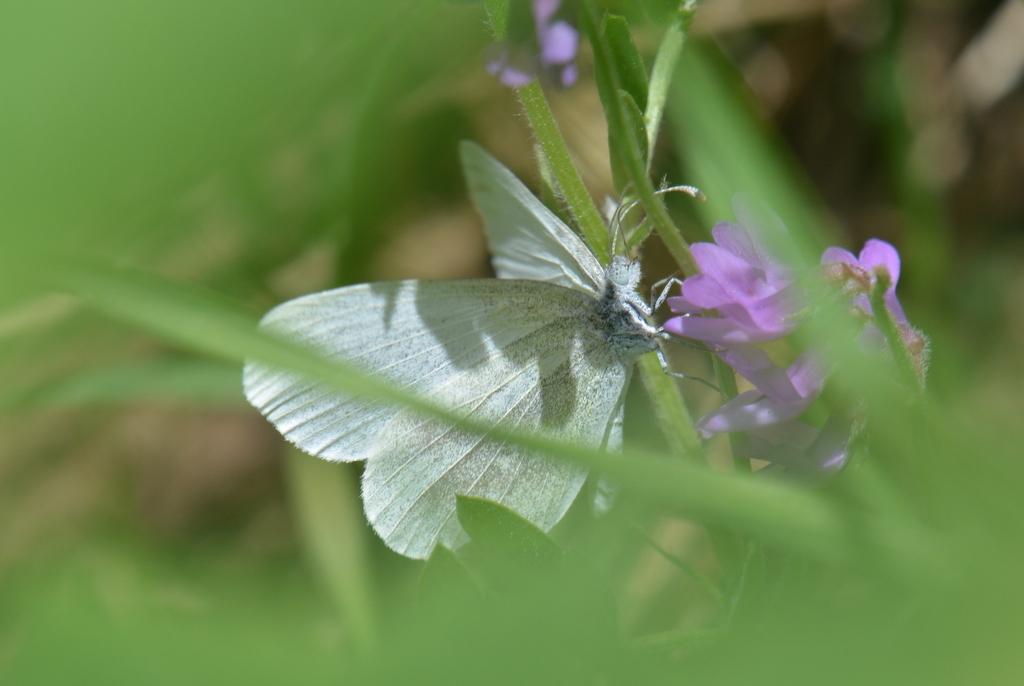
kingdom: Animalia
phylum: Arthropoda
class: Insecta
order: Lepidoptera
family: Pieridae
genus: Leptidea
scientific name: Leptidea
